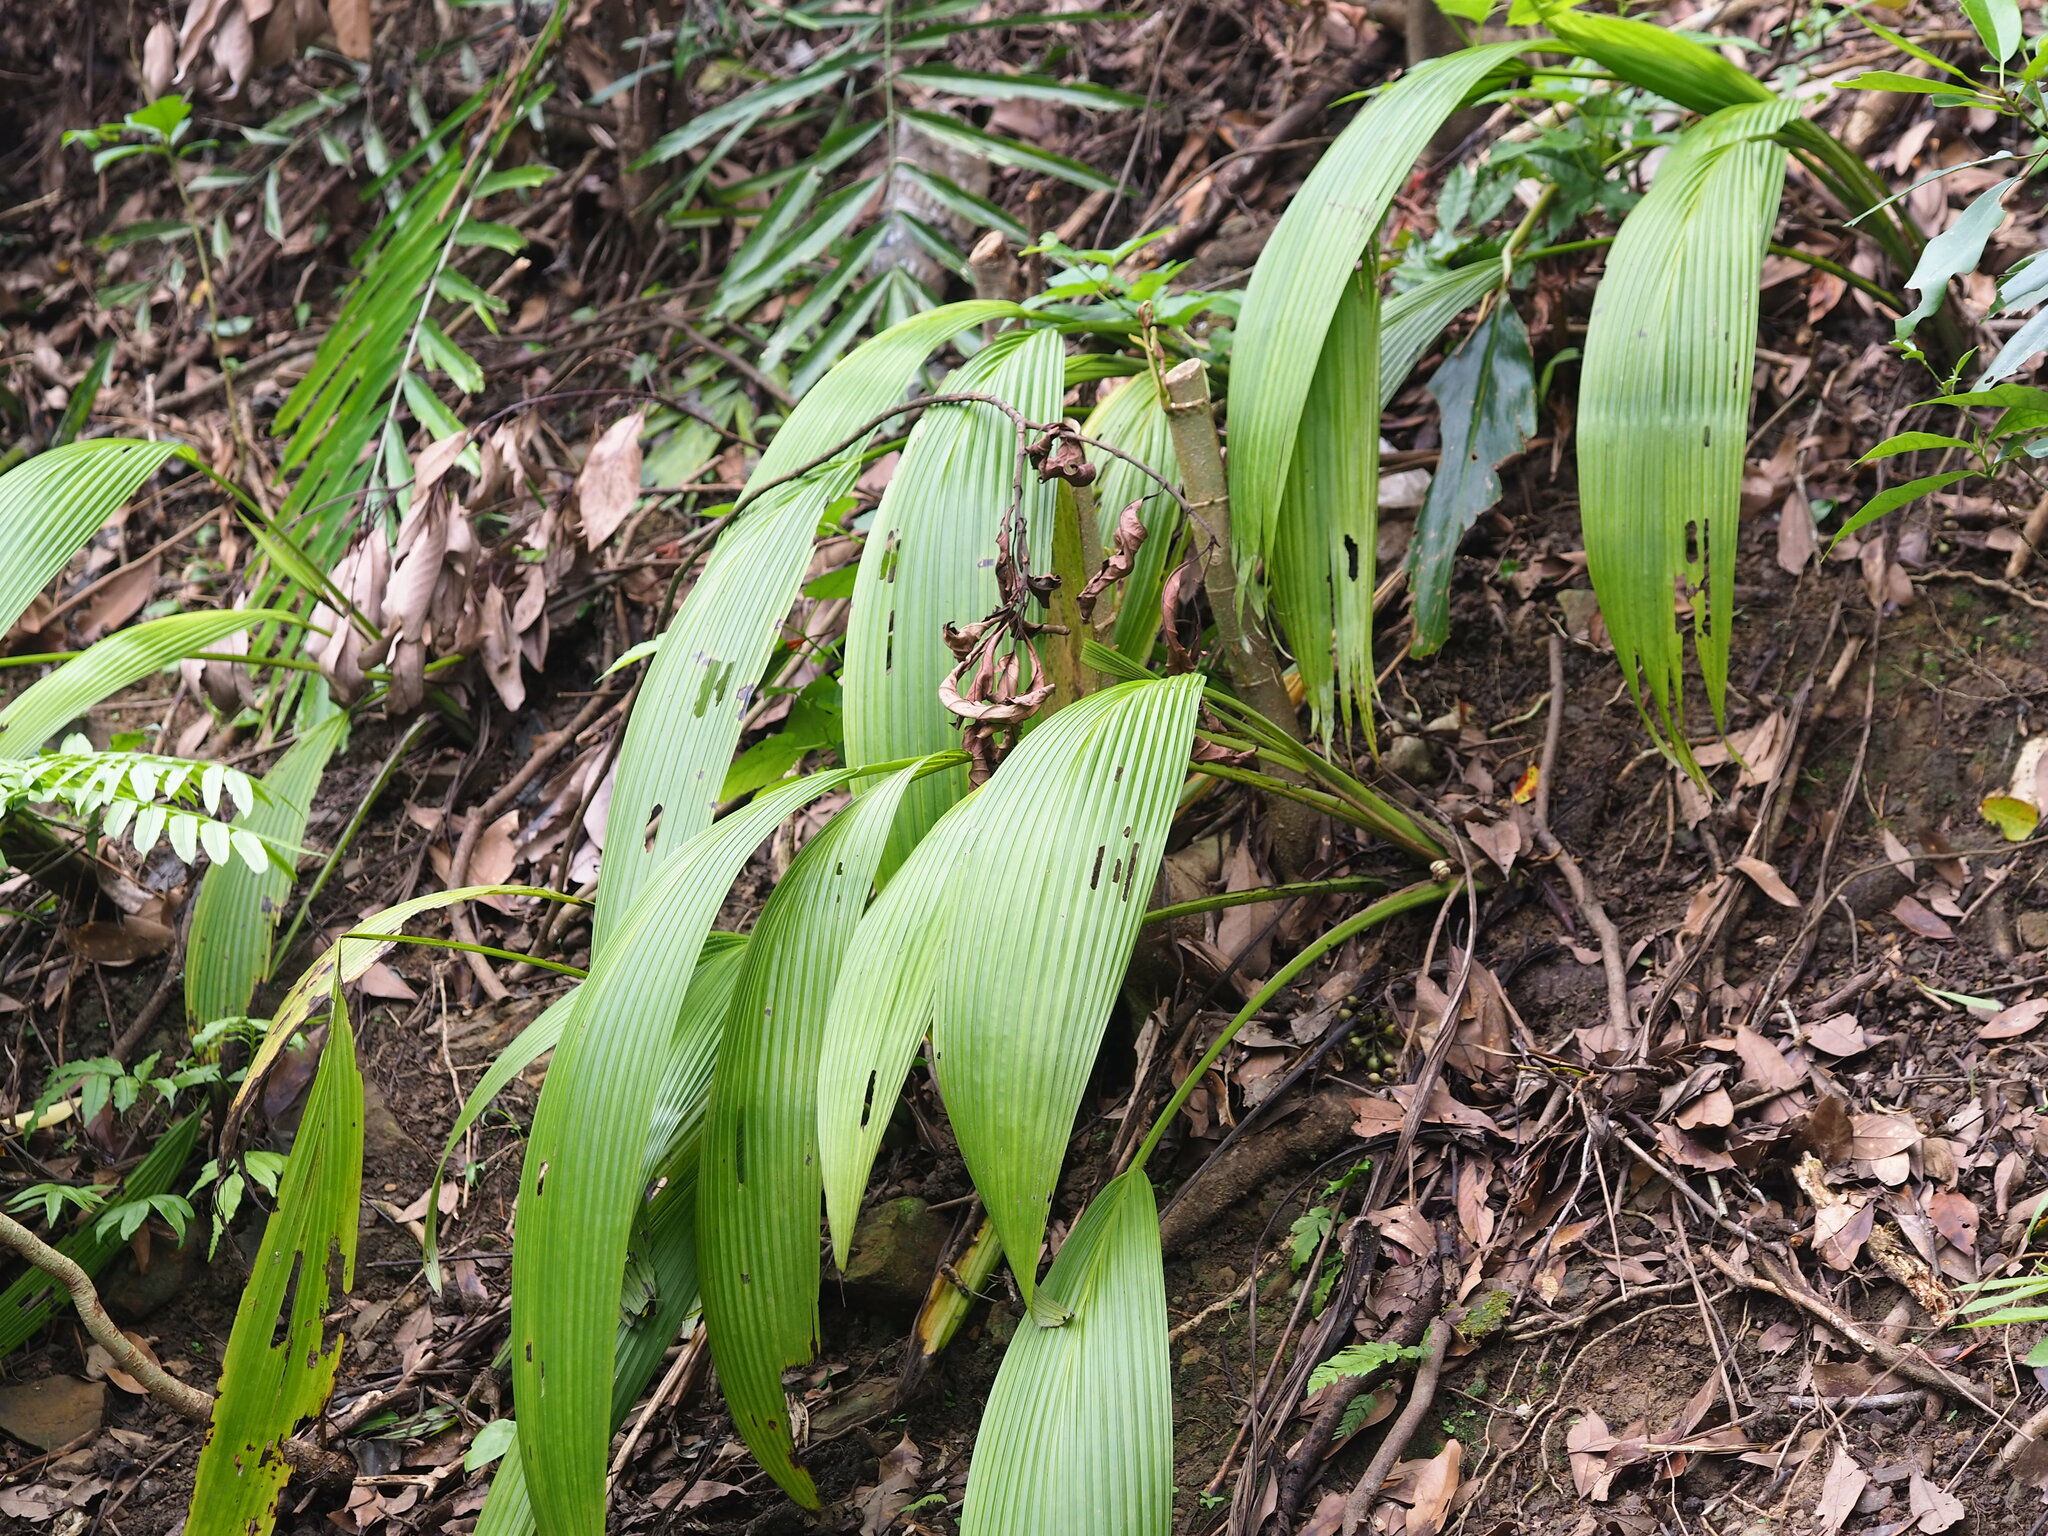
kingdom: Plantae
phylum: Tracheophyta
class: Liliopsida
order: Asparagales
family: Hypoxidaceae
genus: Curculigo
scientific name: Curculigo capitulata
